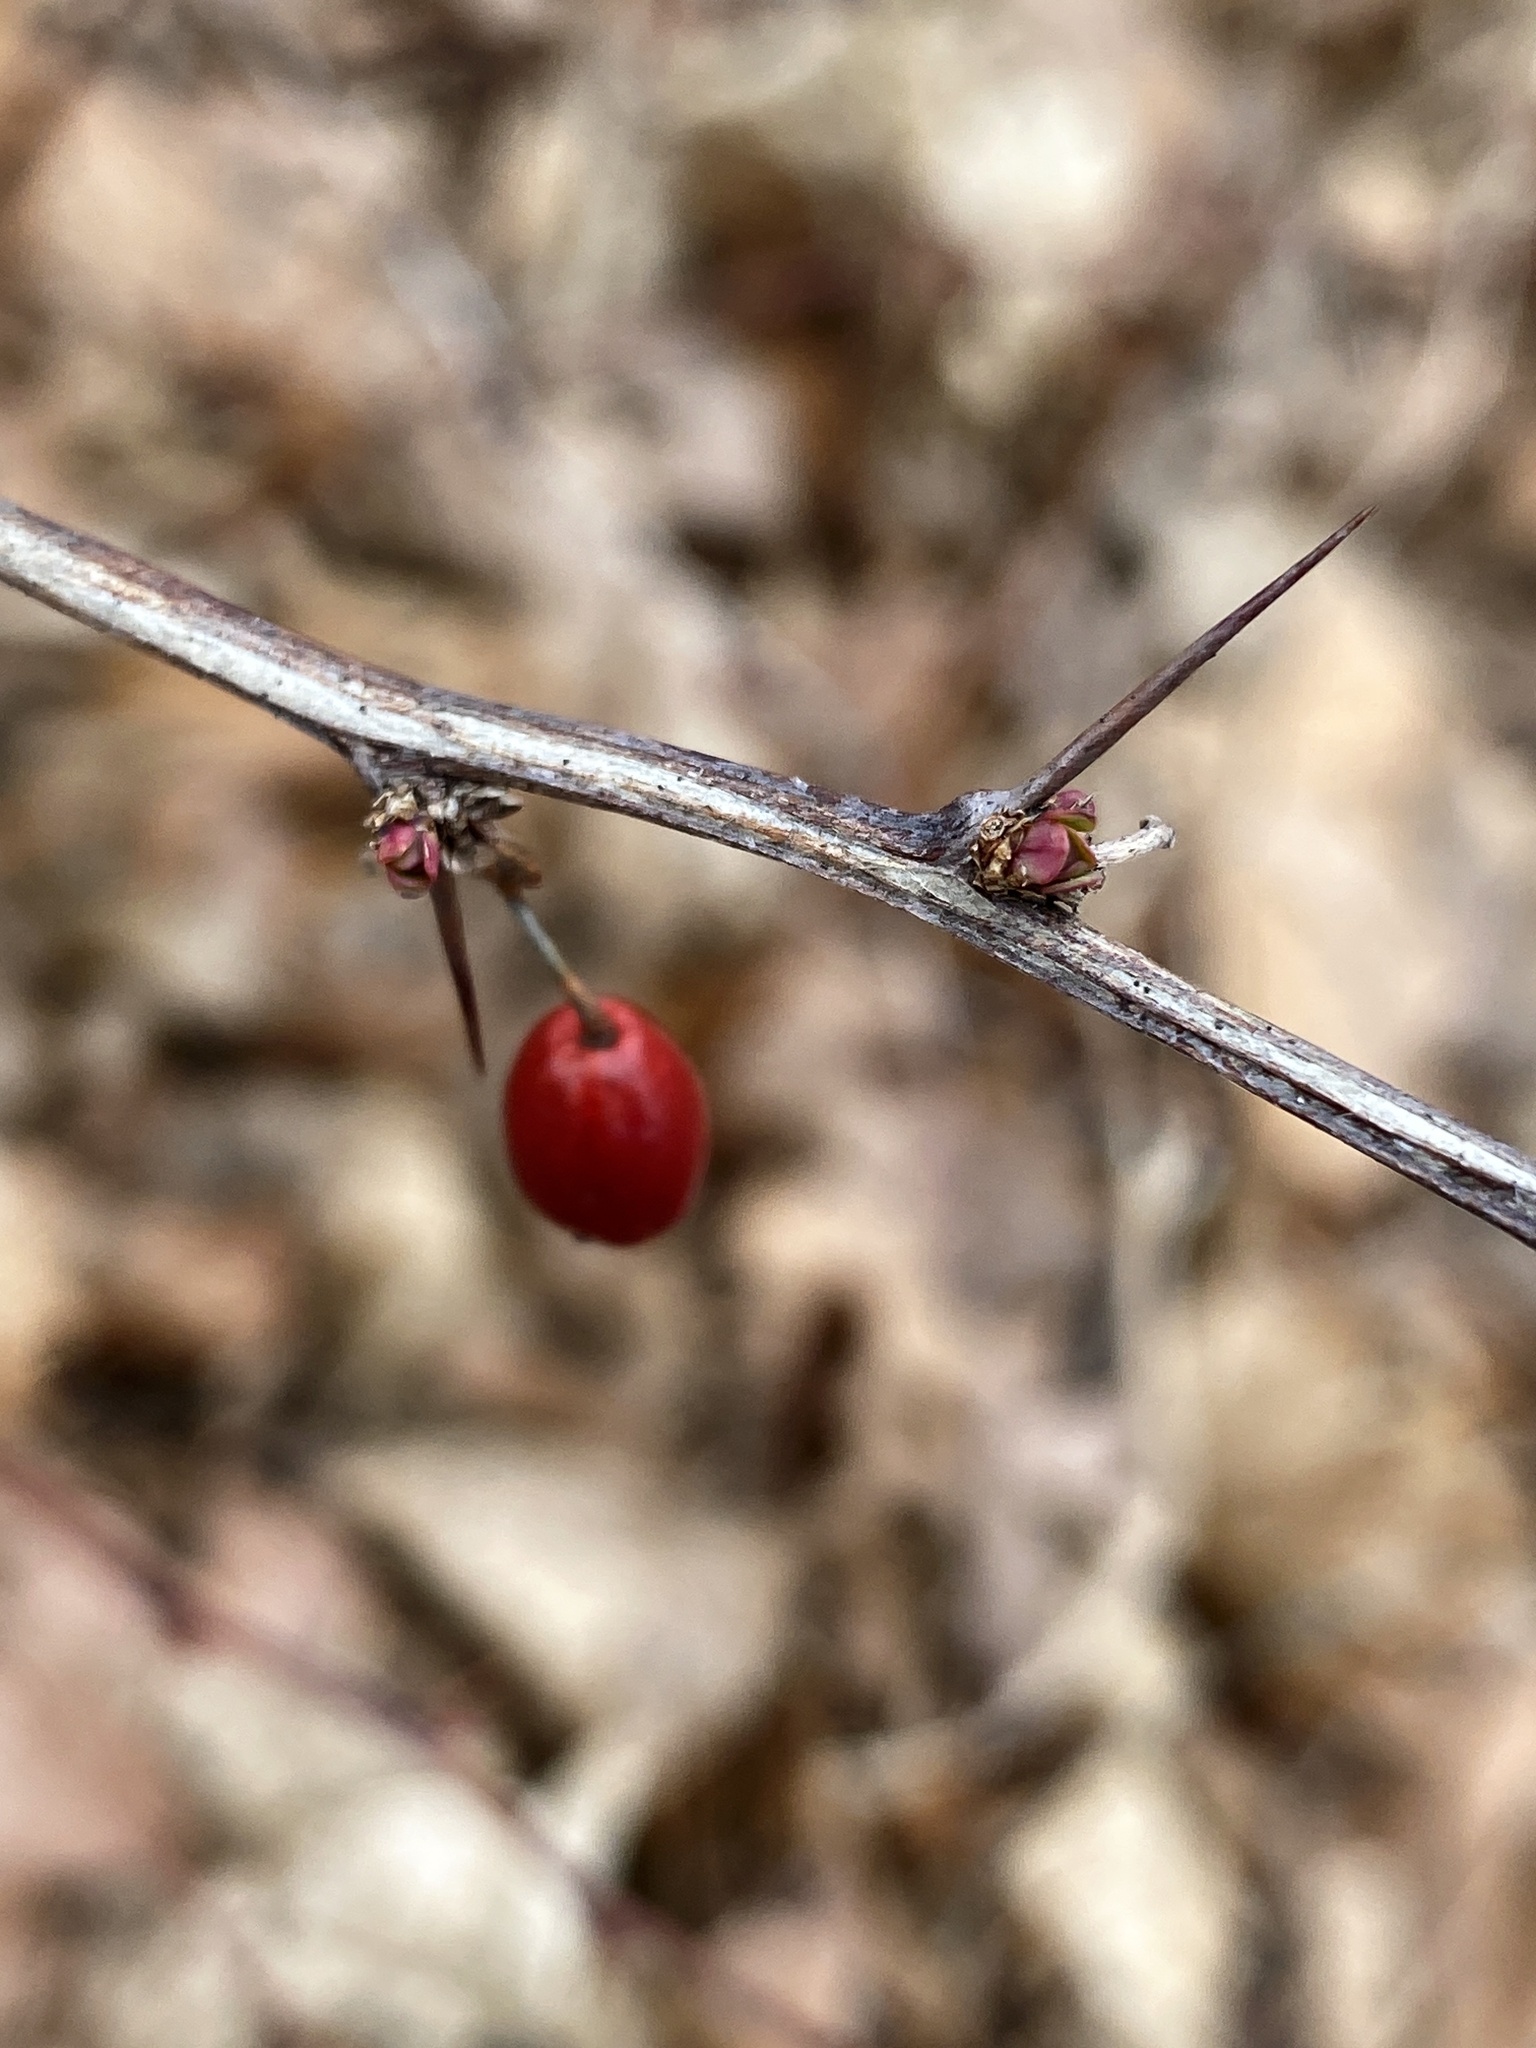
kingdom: Plantae
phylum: Tracheophyta
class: Magnoliopsida
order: Ranunculales
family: Berberidaceae
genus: Berberis
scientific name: Berberis thunbergii
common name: Japanese barberry
